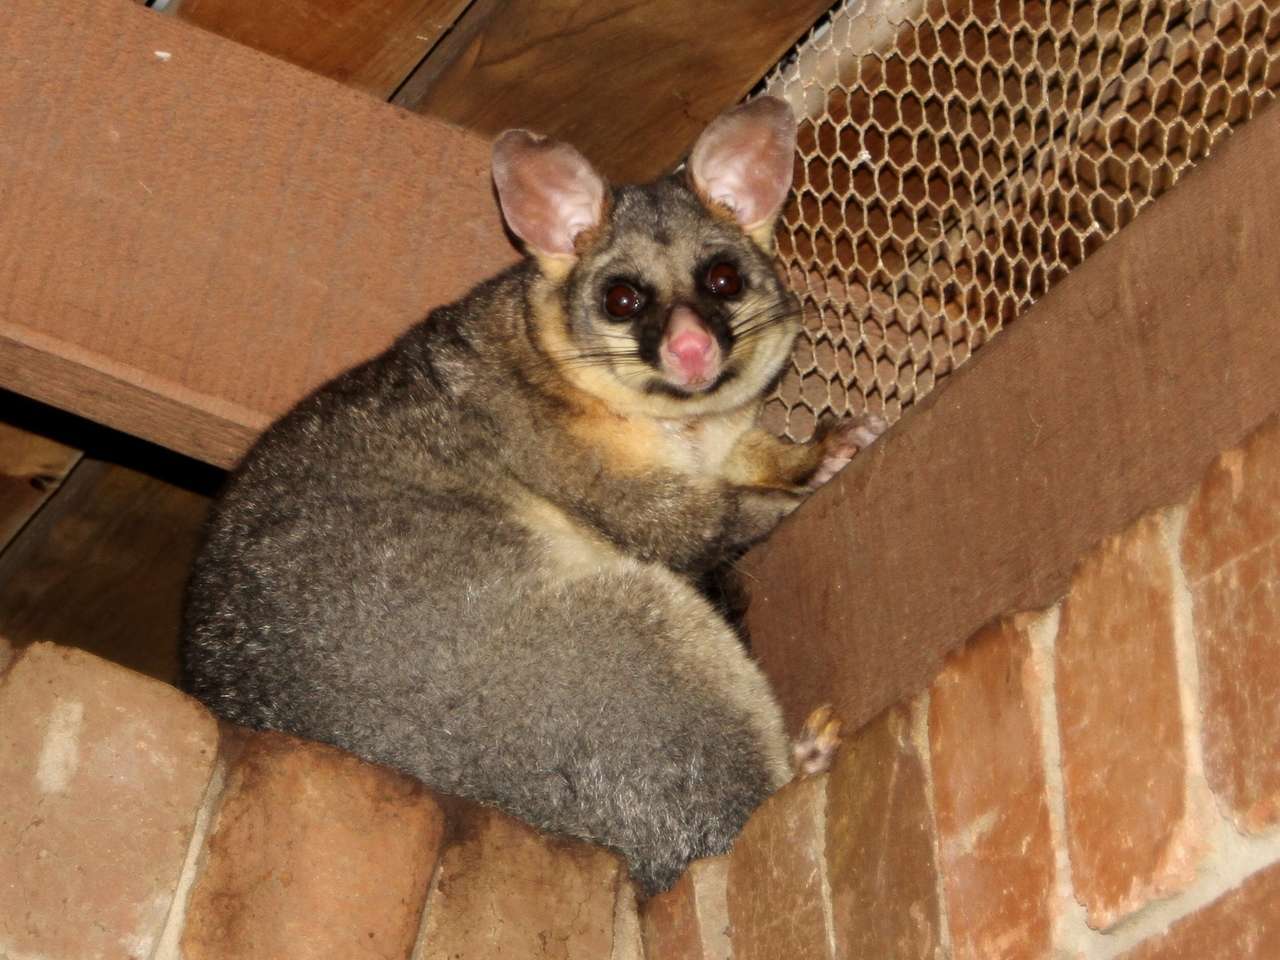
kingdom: Animalia
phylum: Chordata
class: Mammalia
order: Diprotodontia
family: Phalangeridae
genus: Trichosurus
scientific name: Trichosurus vulpecula
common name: Common brushtail
